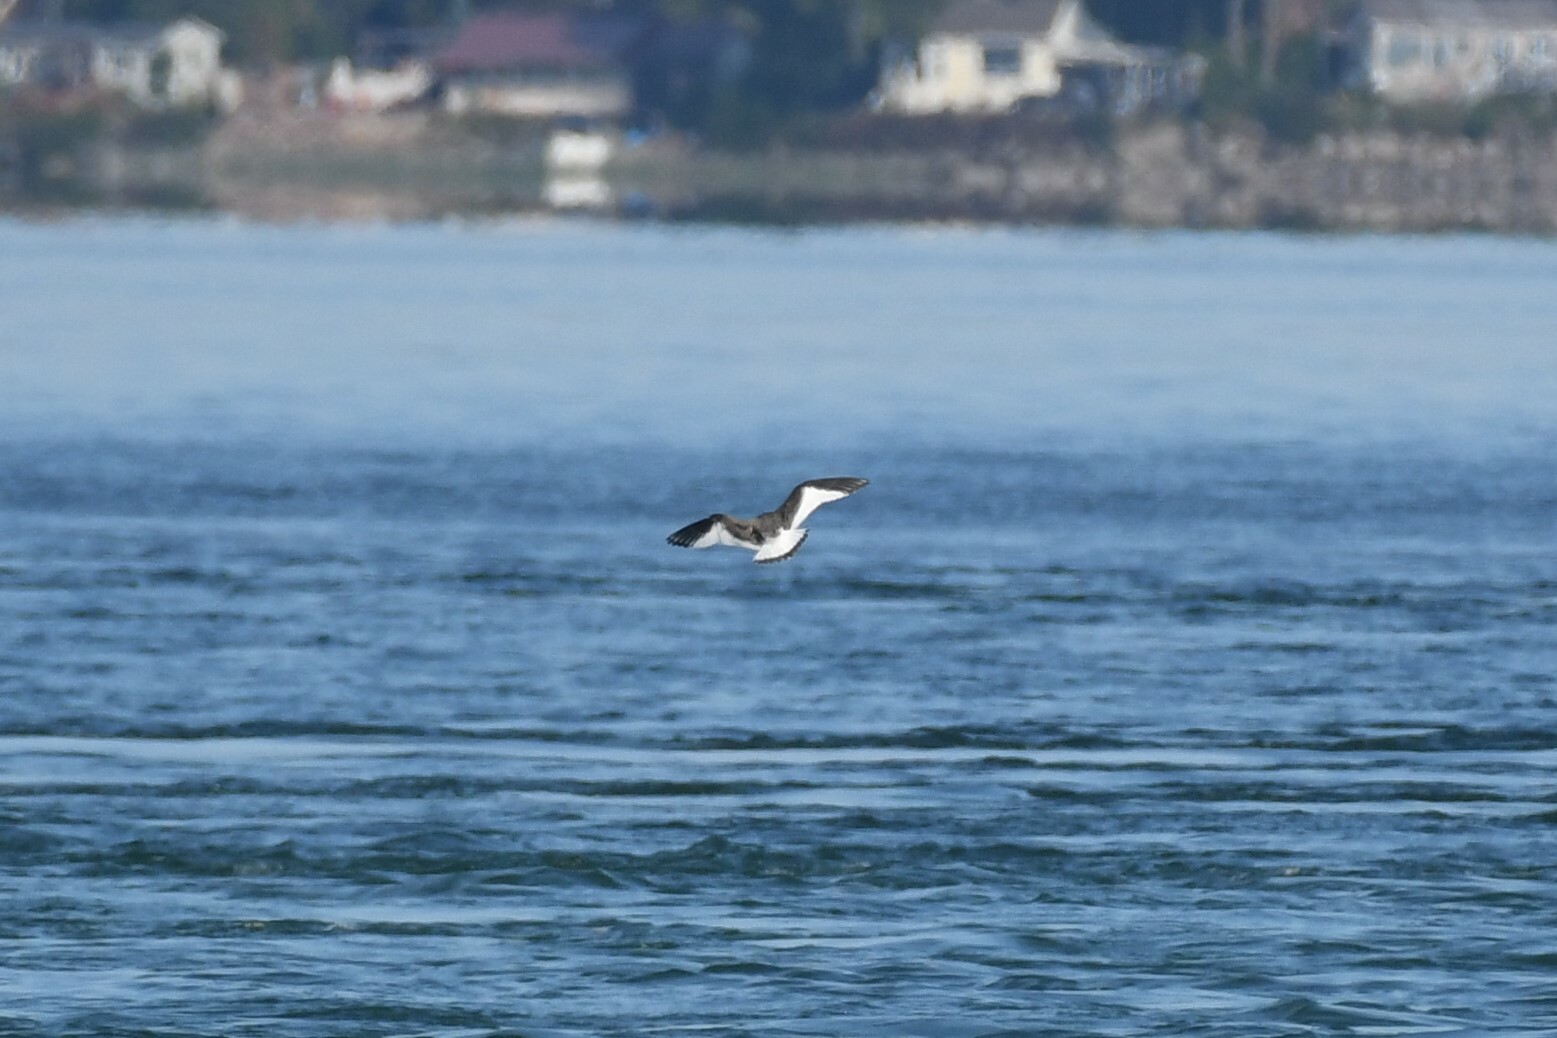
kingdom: Animalia
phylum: Chordata
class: Aves
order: Charadriiformes
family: Laridae
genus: Xema
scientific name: Xema sabini
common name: Sabine's gull
